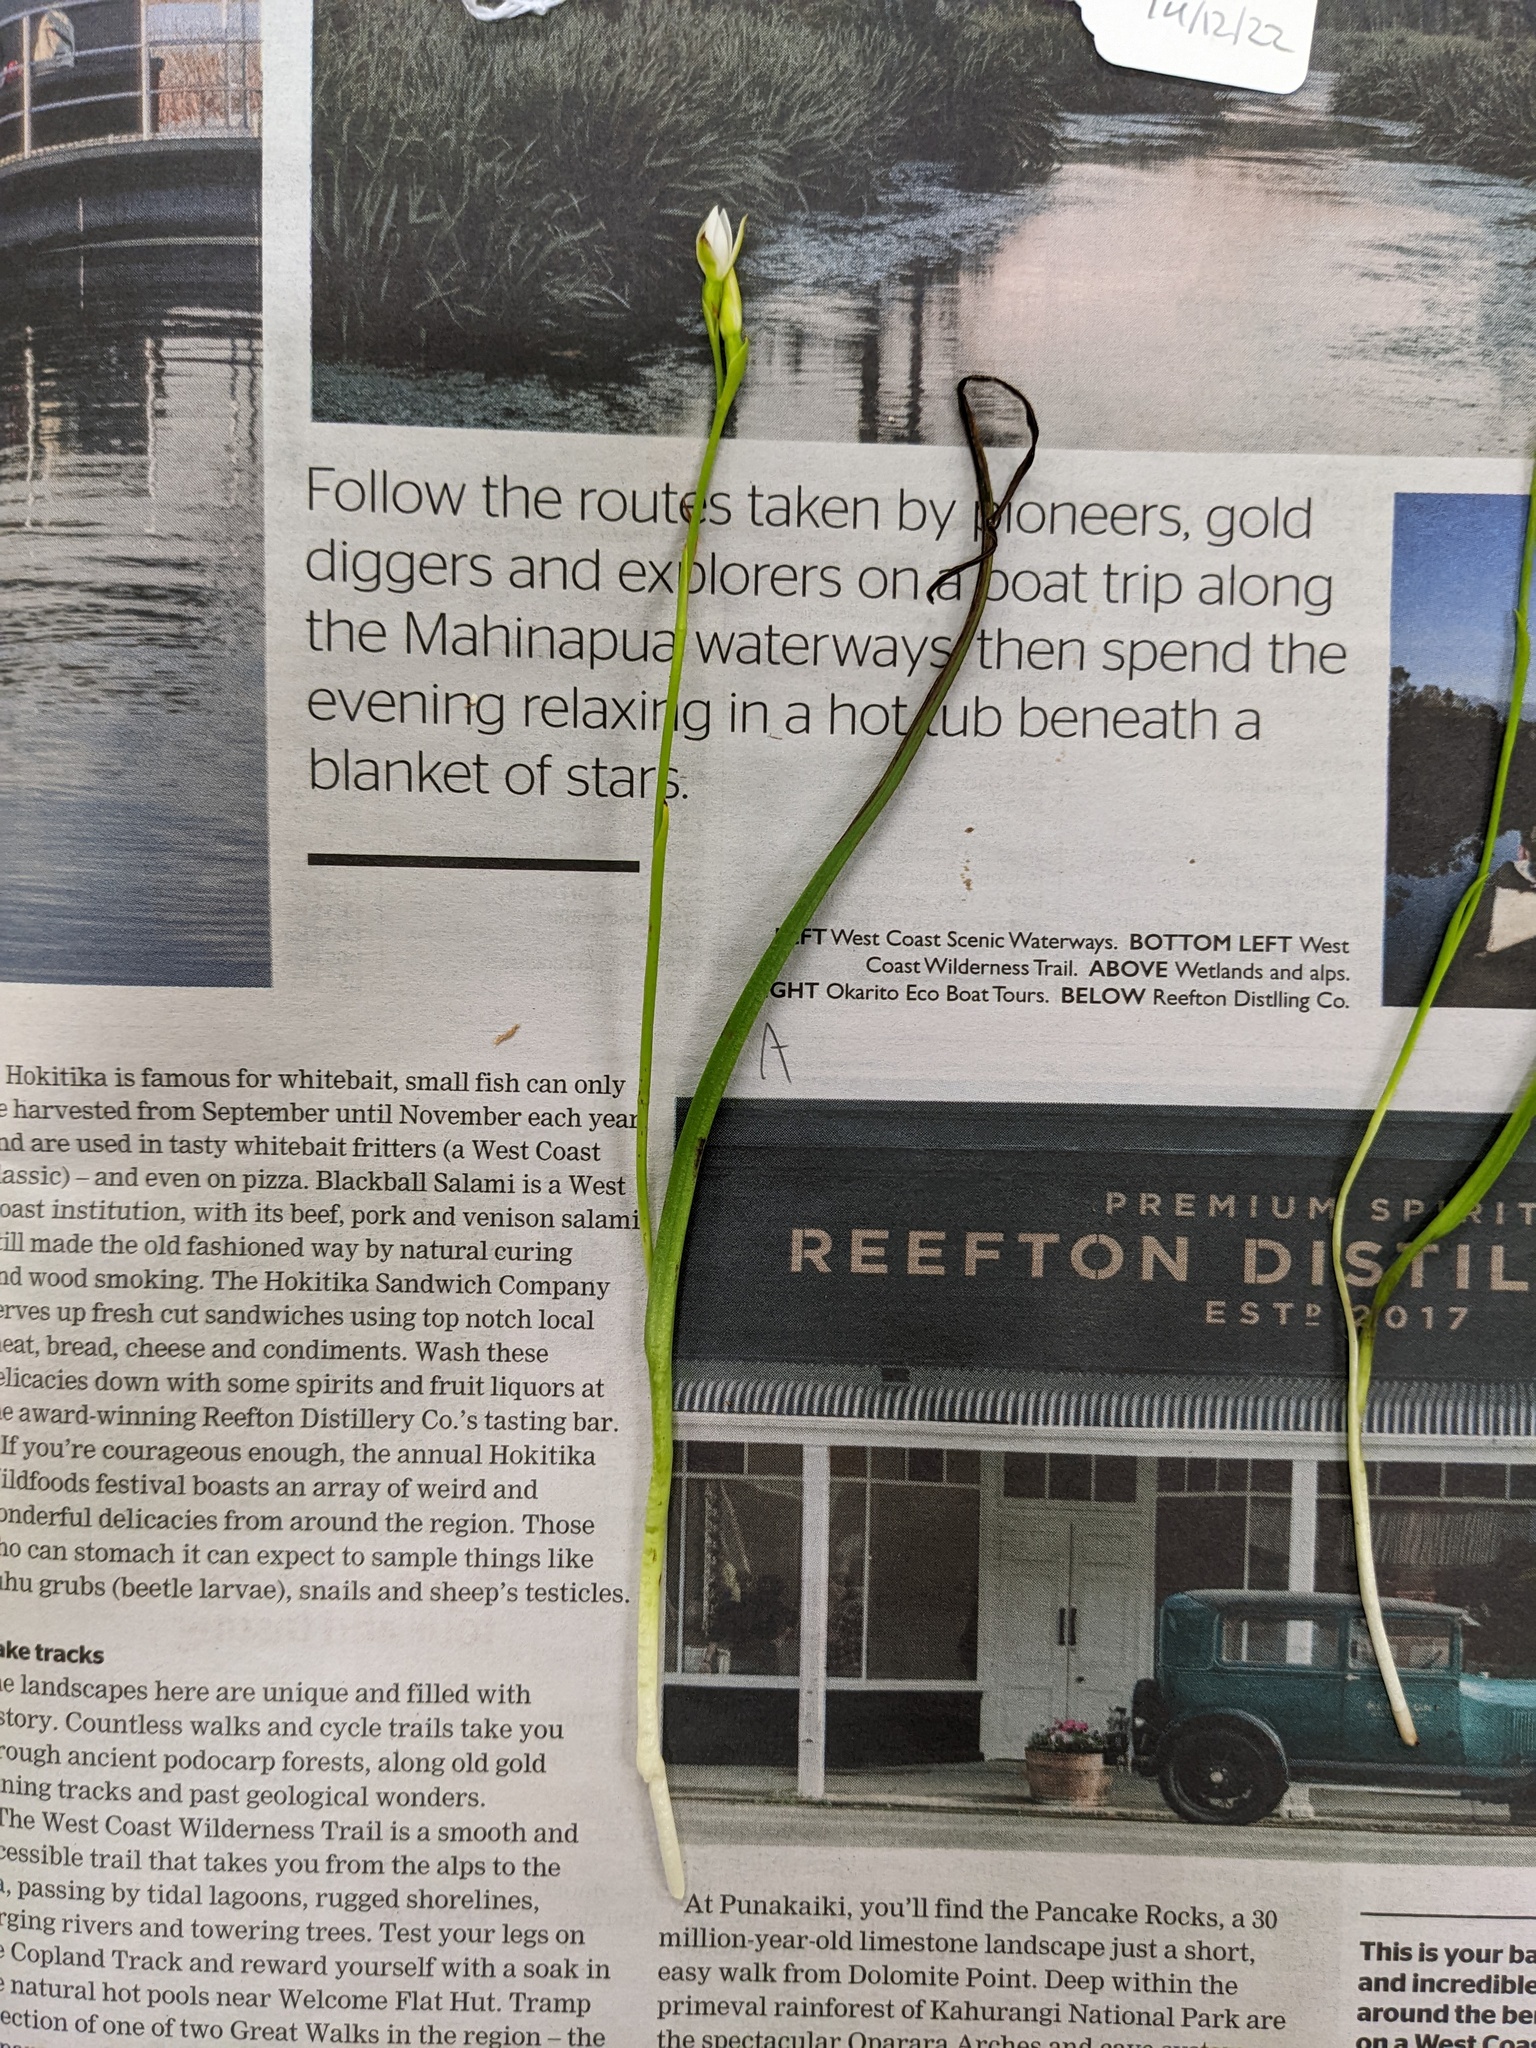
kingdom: Plantae
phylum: Tracheophyta
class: Liliopsida
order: Asparagales
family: Orchidaceae
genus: Thelymitra
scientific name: Thelymitra longifolia
